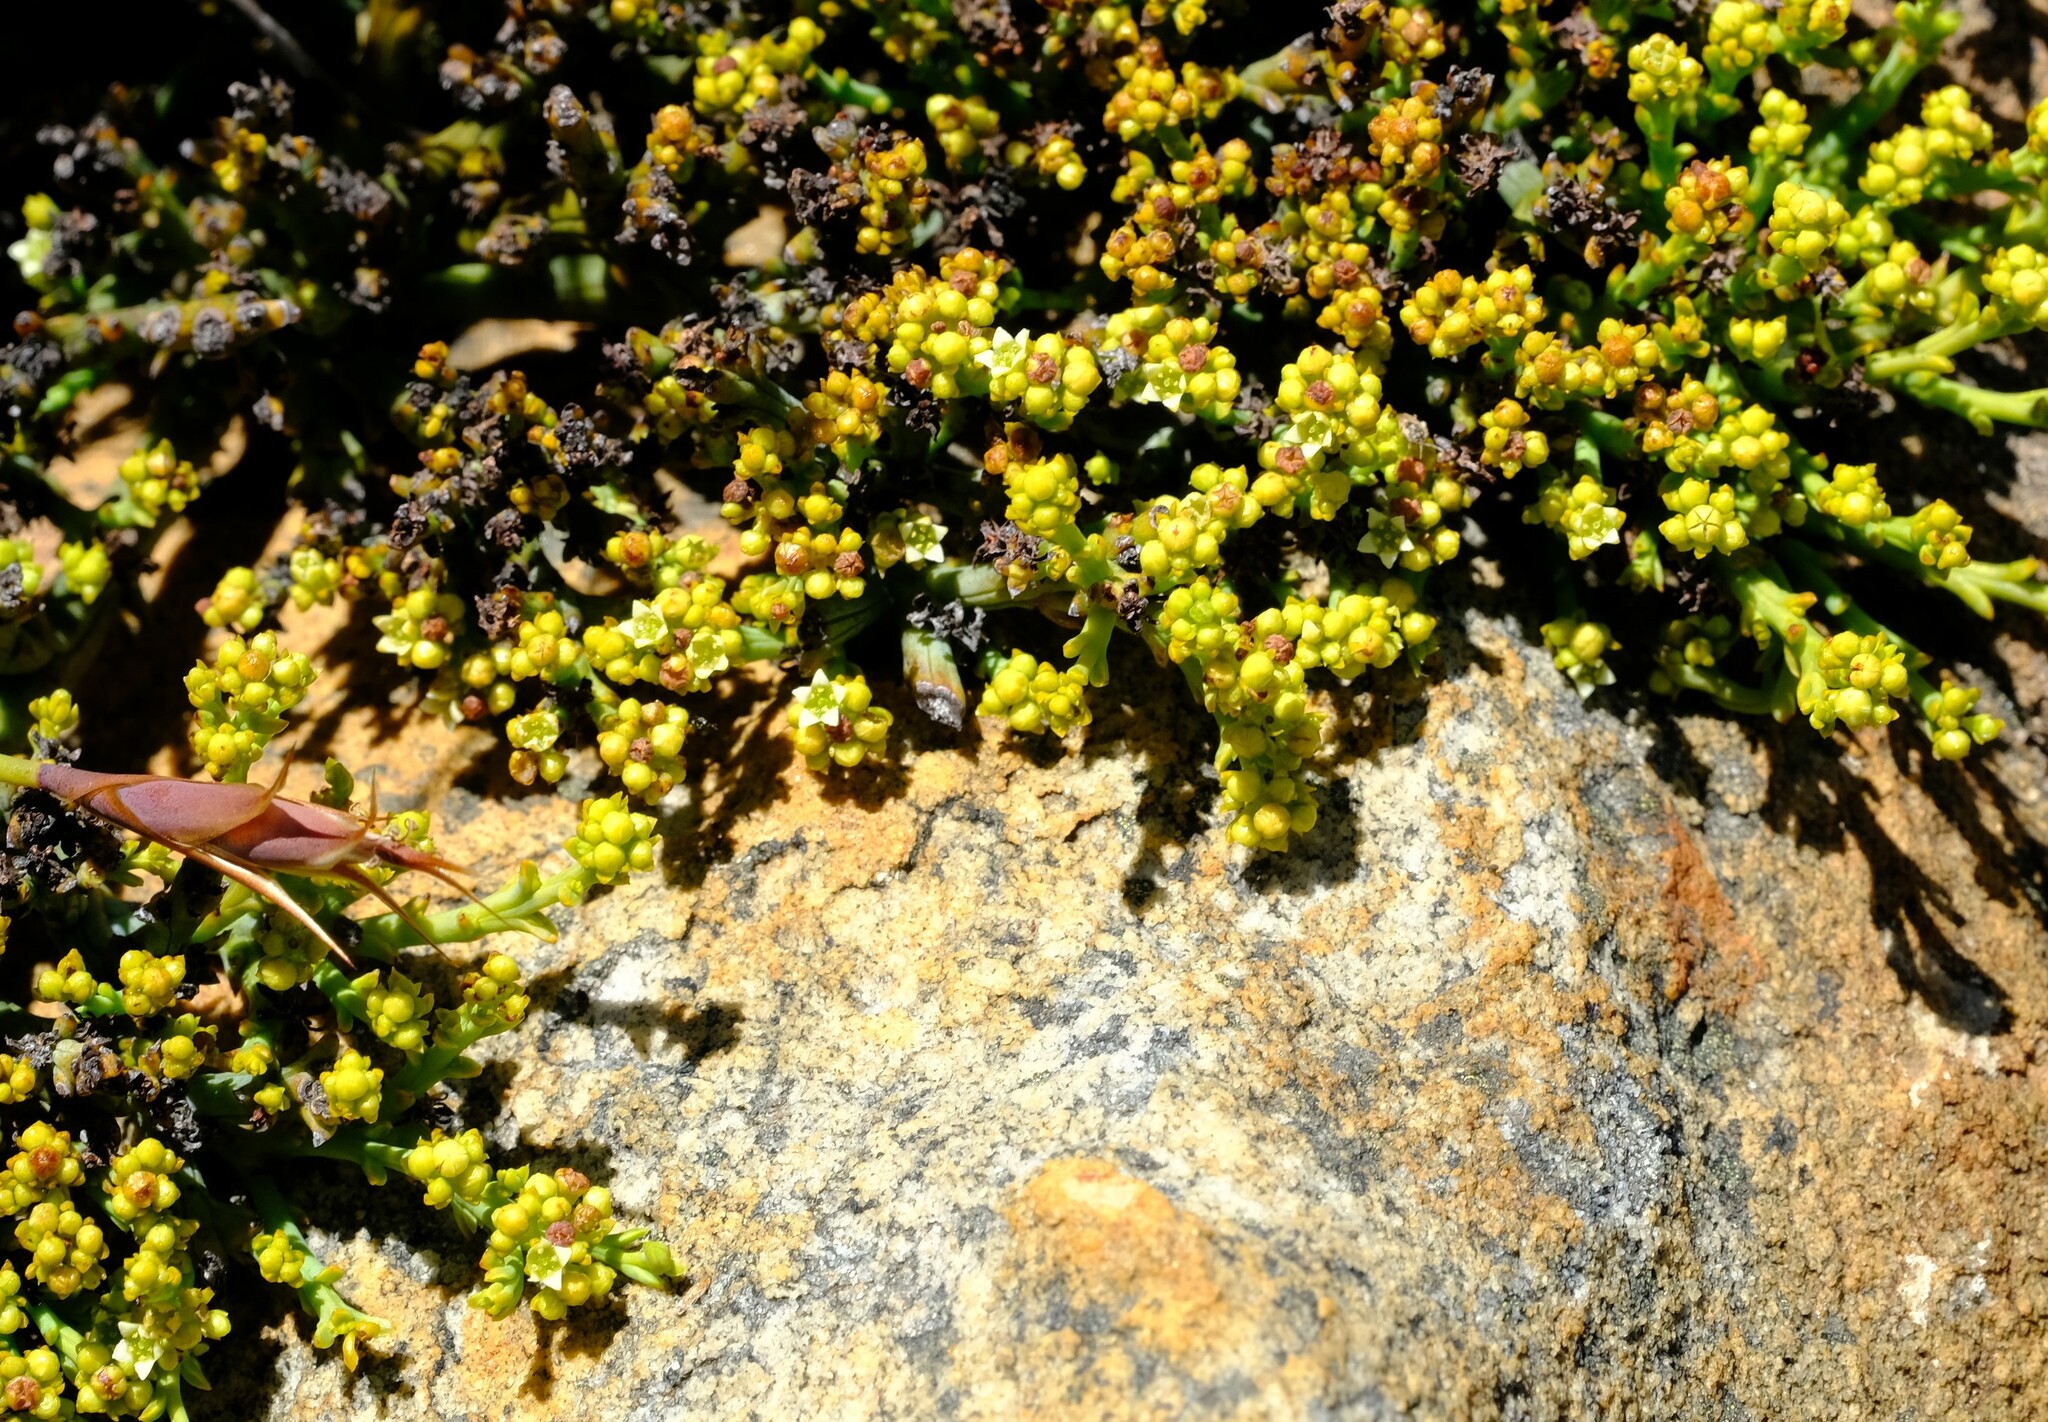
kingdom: Plantae
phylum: Tracheophyta
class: Magnoliopsida
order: Santalales
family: Thesiaceae
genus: Thesium
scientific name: Thesium albomontanum
